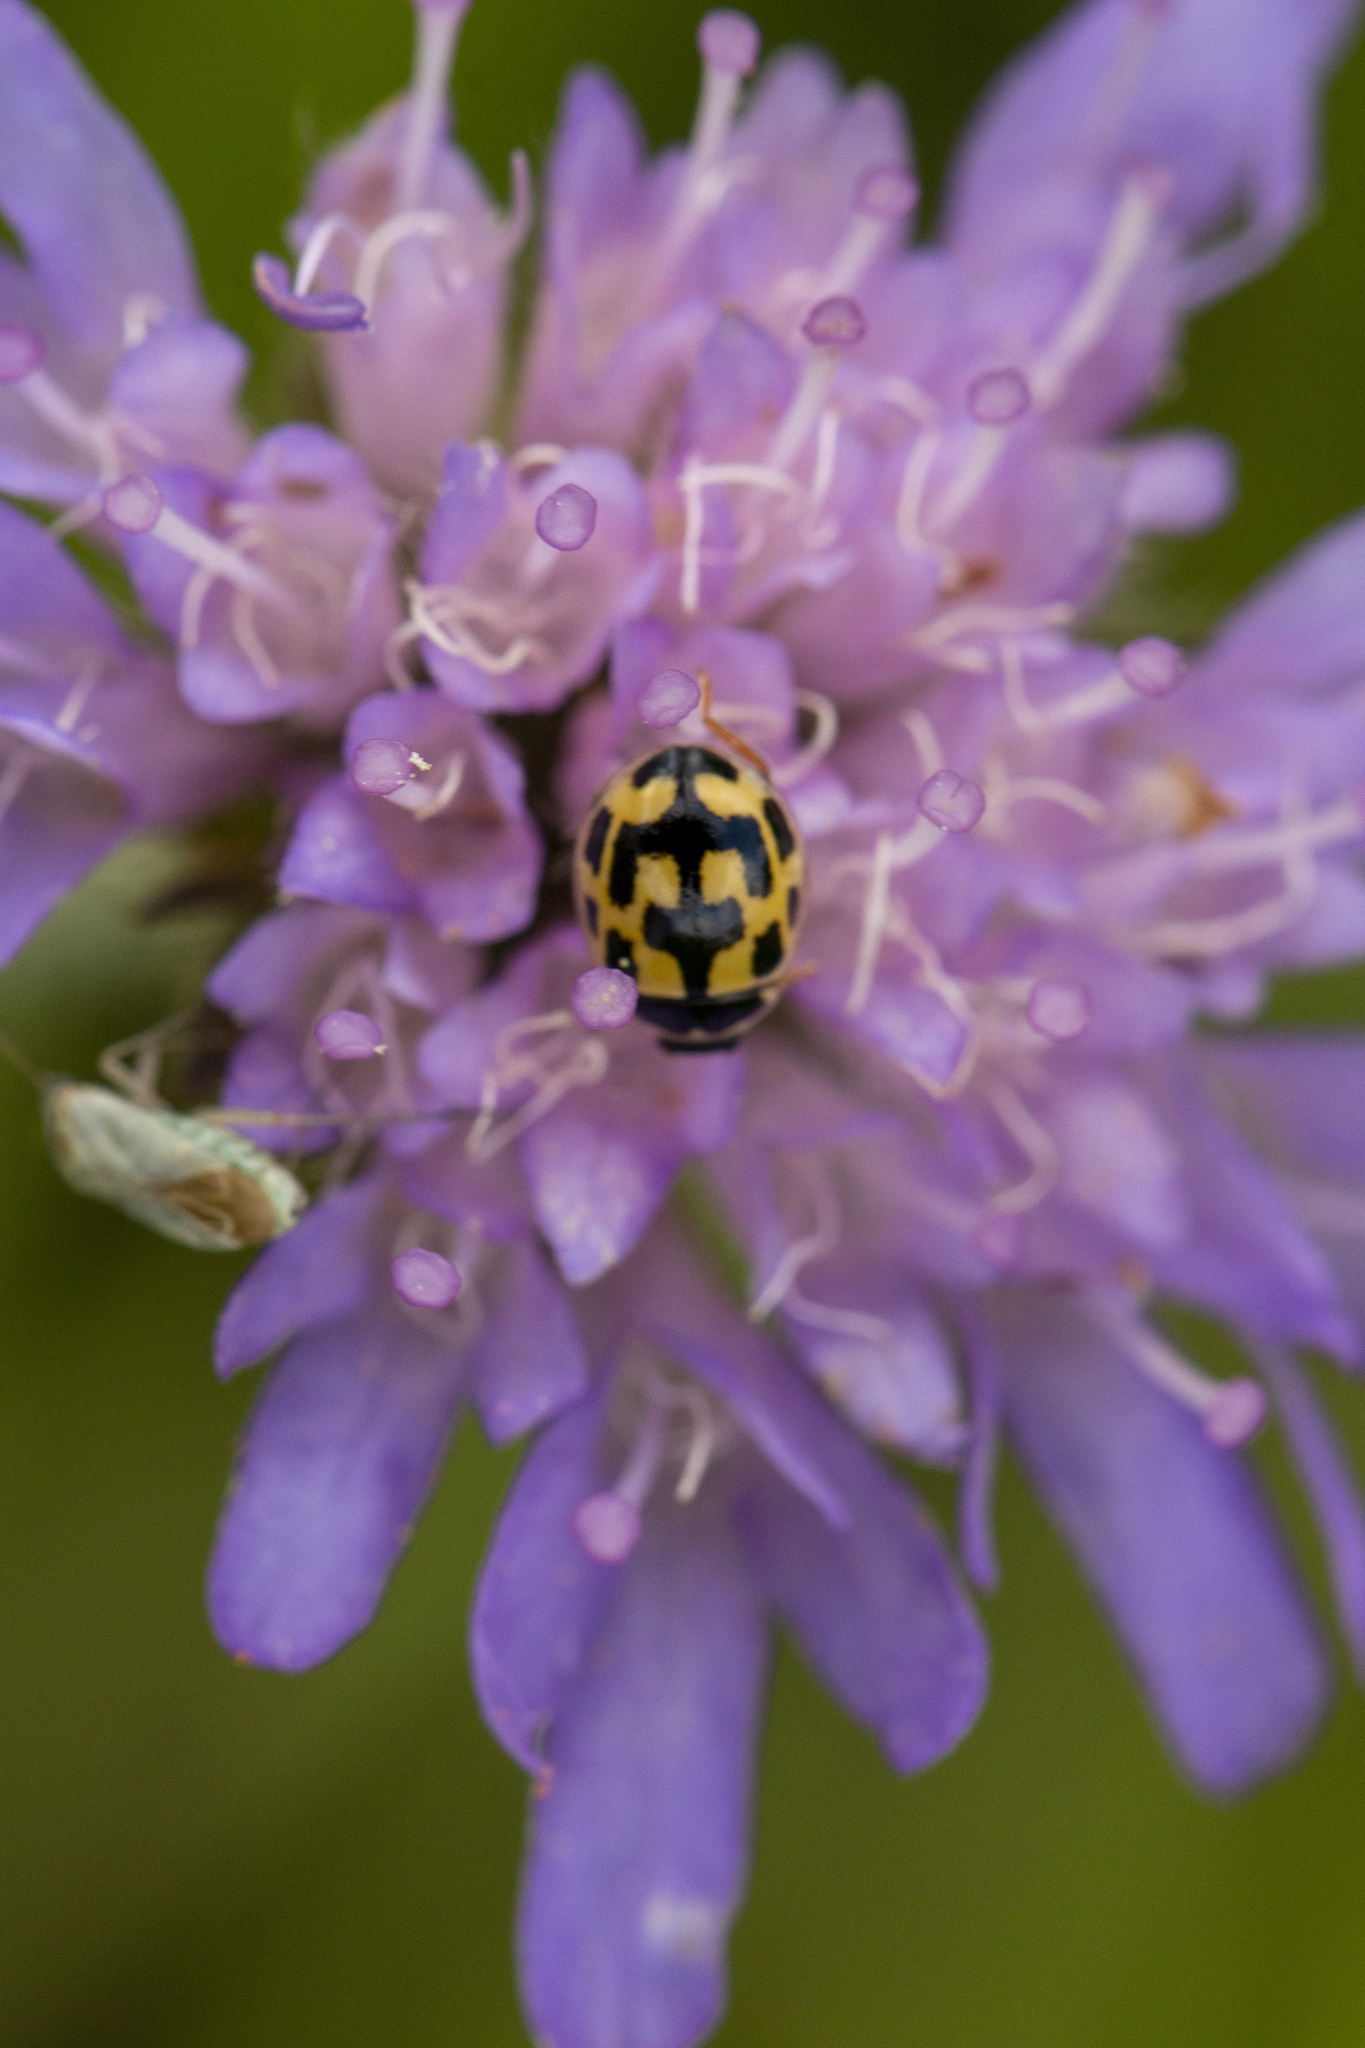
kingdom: Animalia
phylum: Arthropoda
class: Insecta
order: Coleoptera
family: Coccinellidae
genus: Propylaea
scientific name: Propylaea quatuordecimpunctata
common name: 14-spotted ladybird beetle
